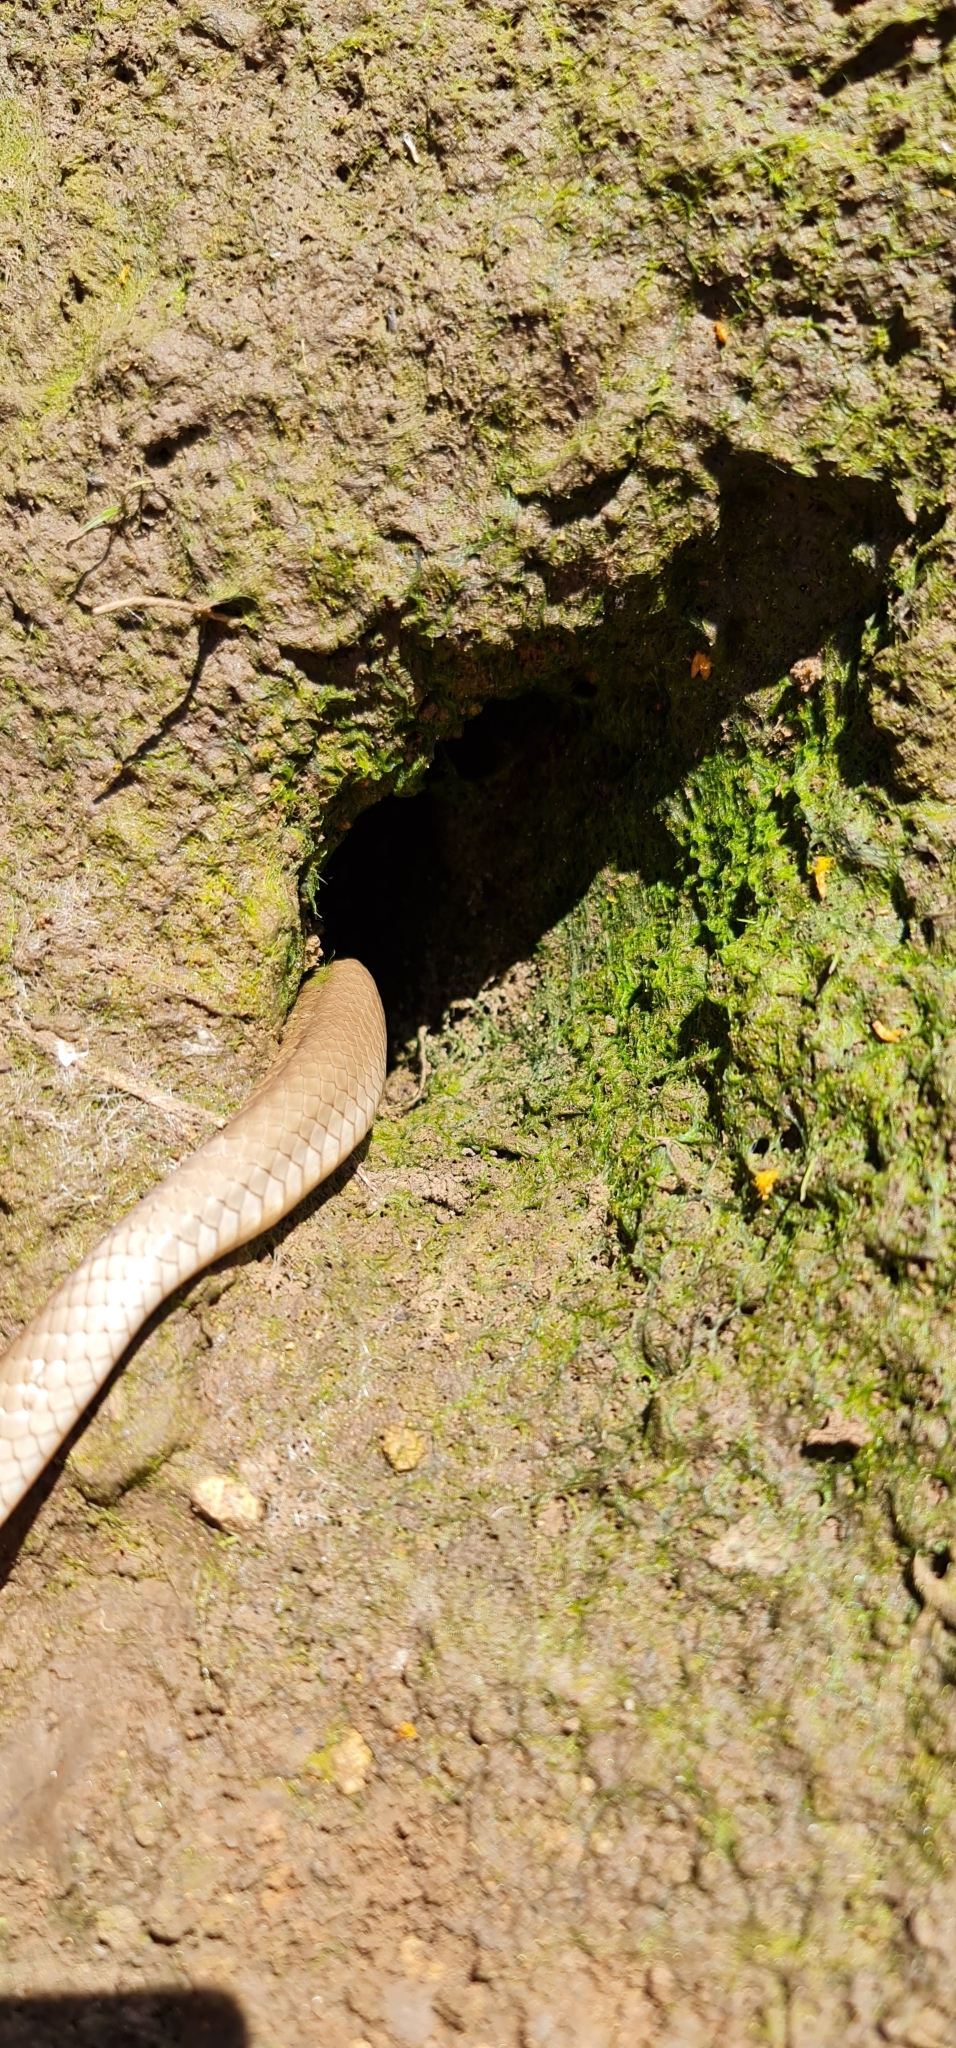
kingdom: Animalia
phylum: Chordata
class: Squamata
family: Elapidae
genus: Pseudonaja
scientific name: Pseudonaja textilis
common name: Eastern brown snake
